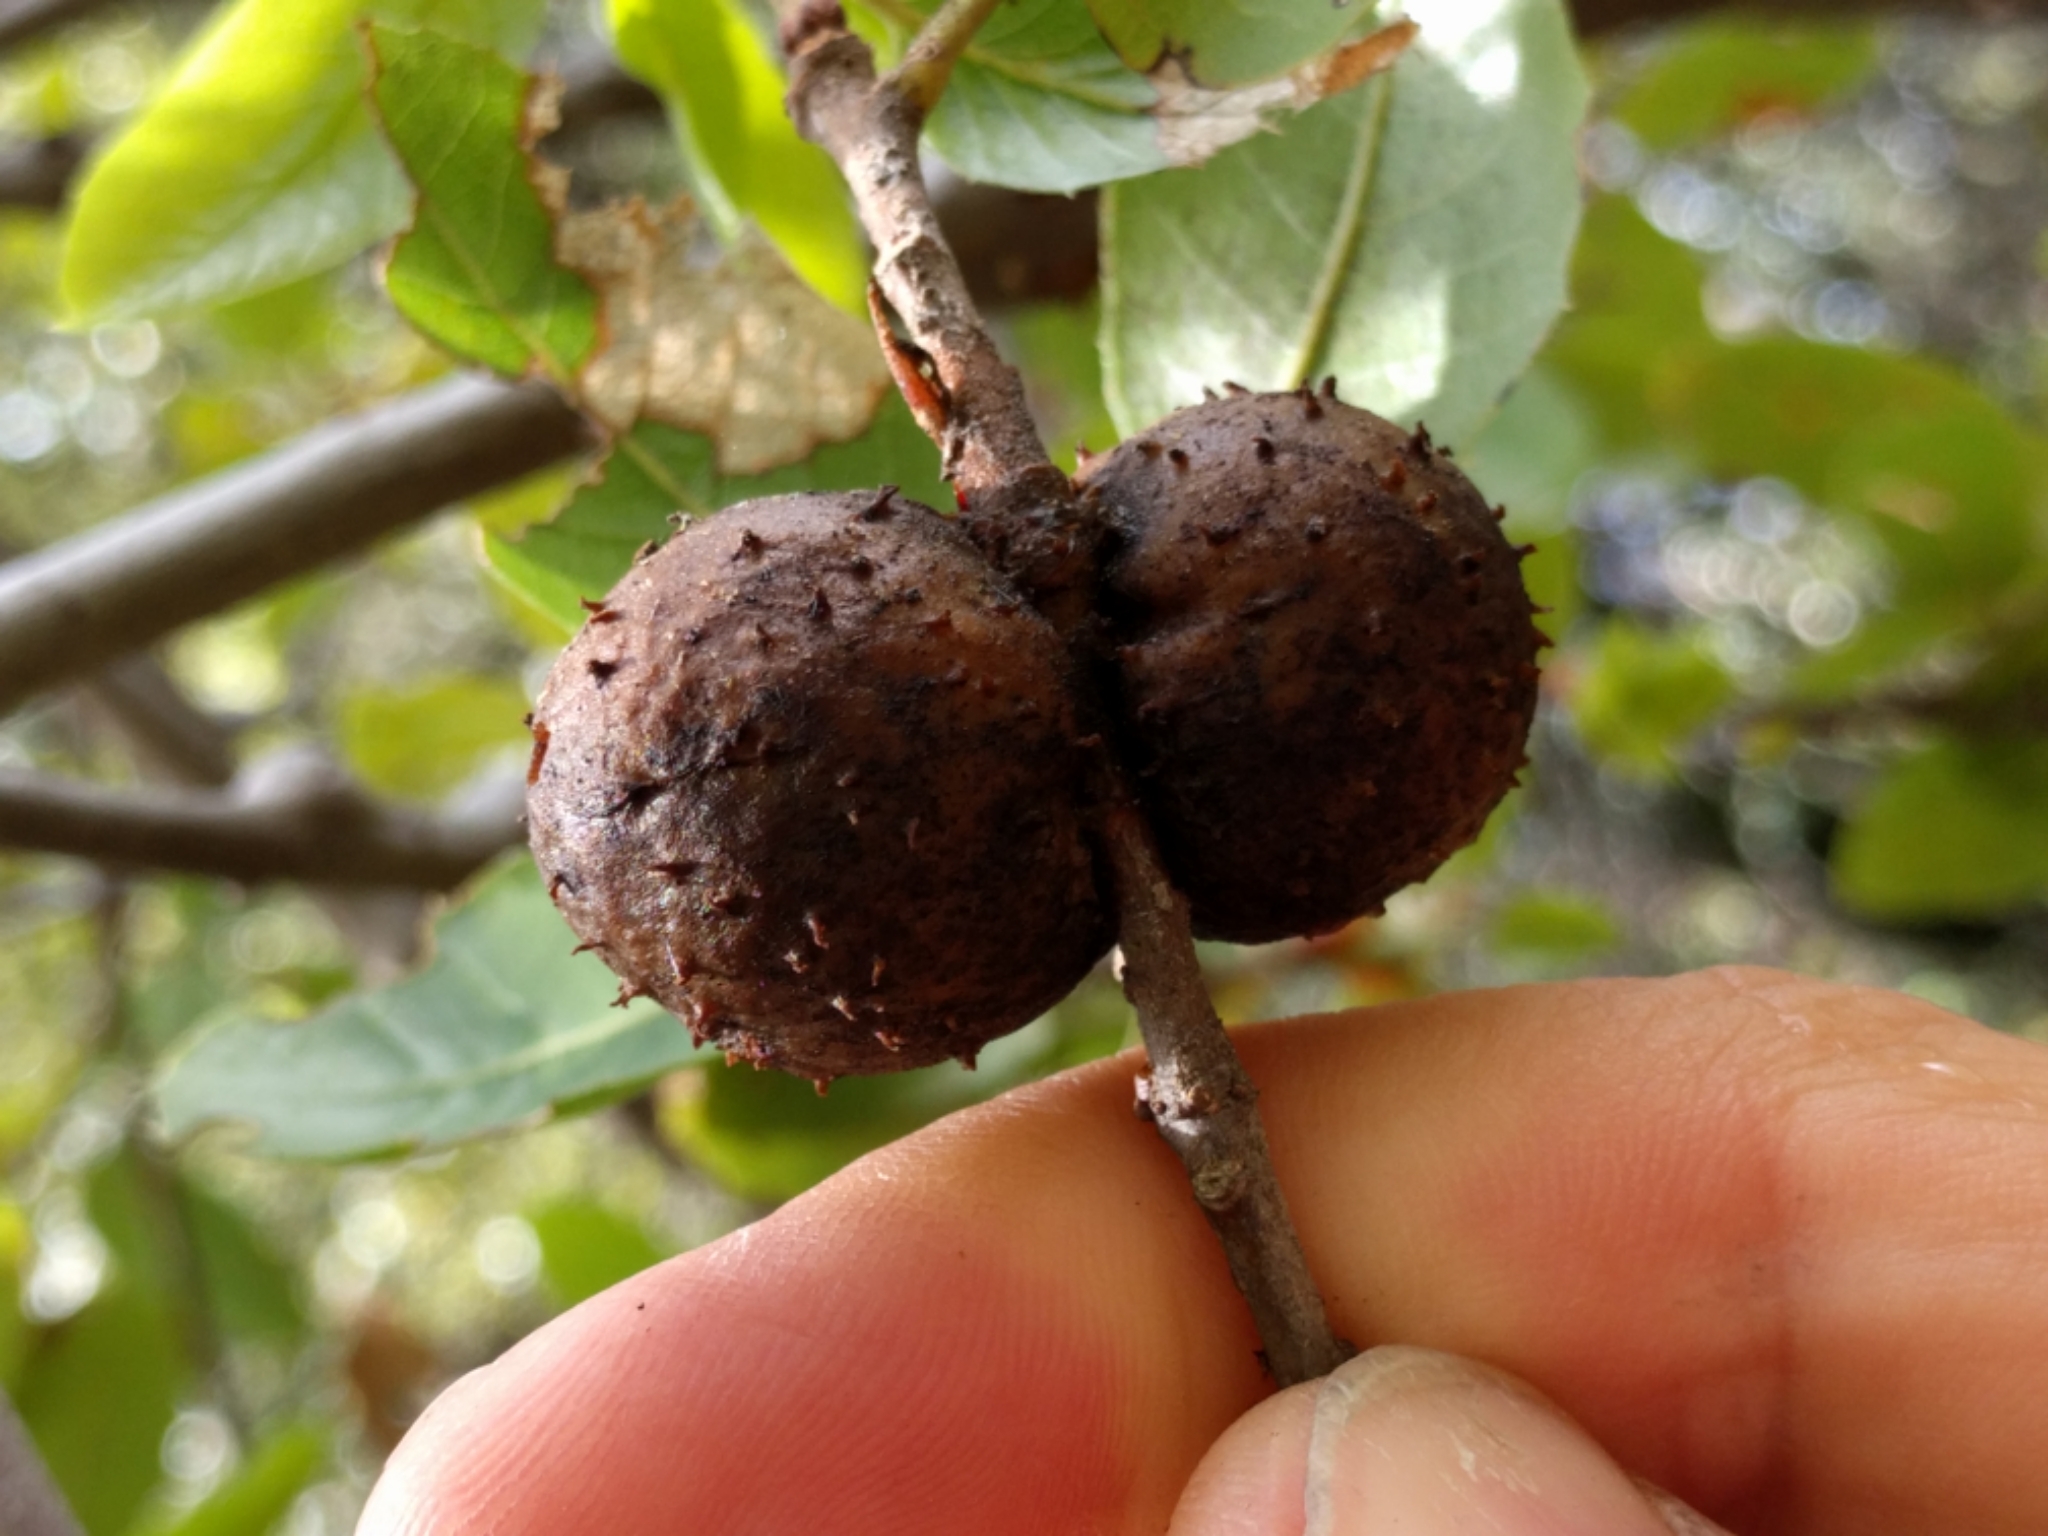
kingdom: Animalia
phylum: Arthropoda
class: Insecta
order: Hymenoptera
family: Cynipidae
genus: Amphibolips
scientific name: Amphibolips quercuspomiformis
